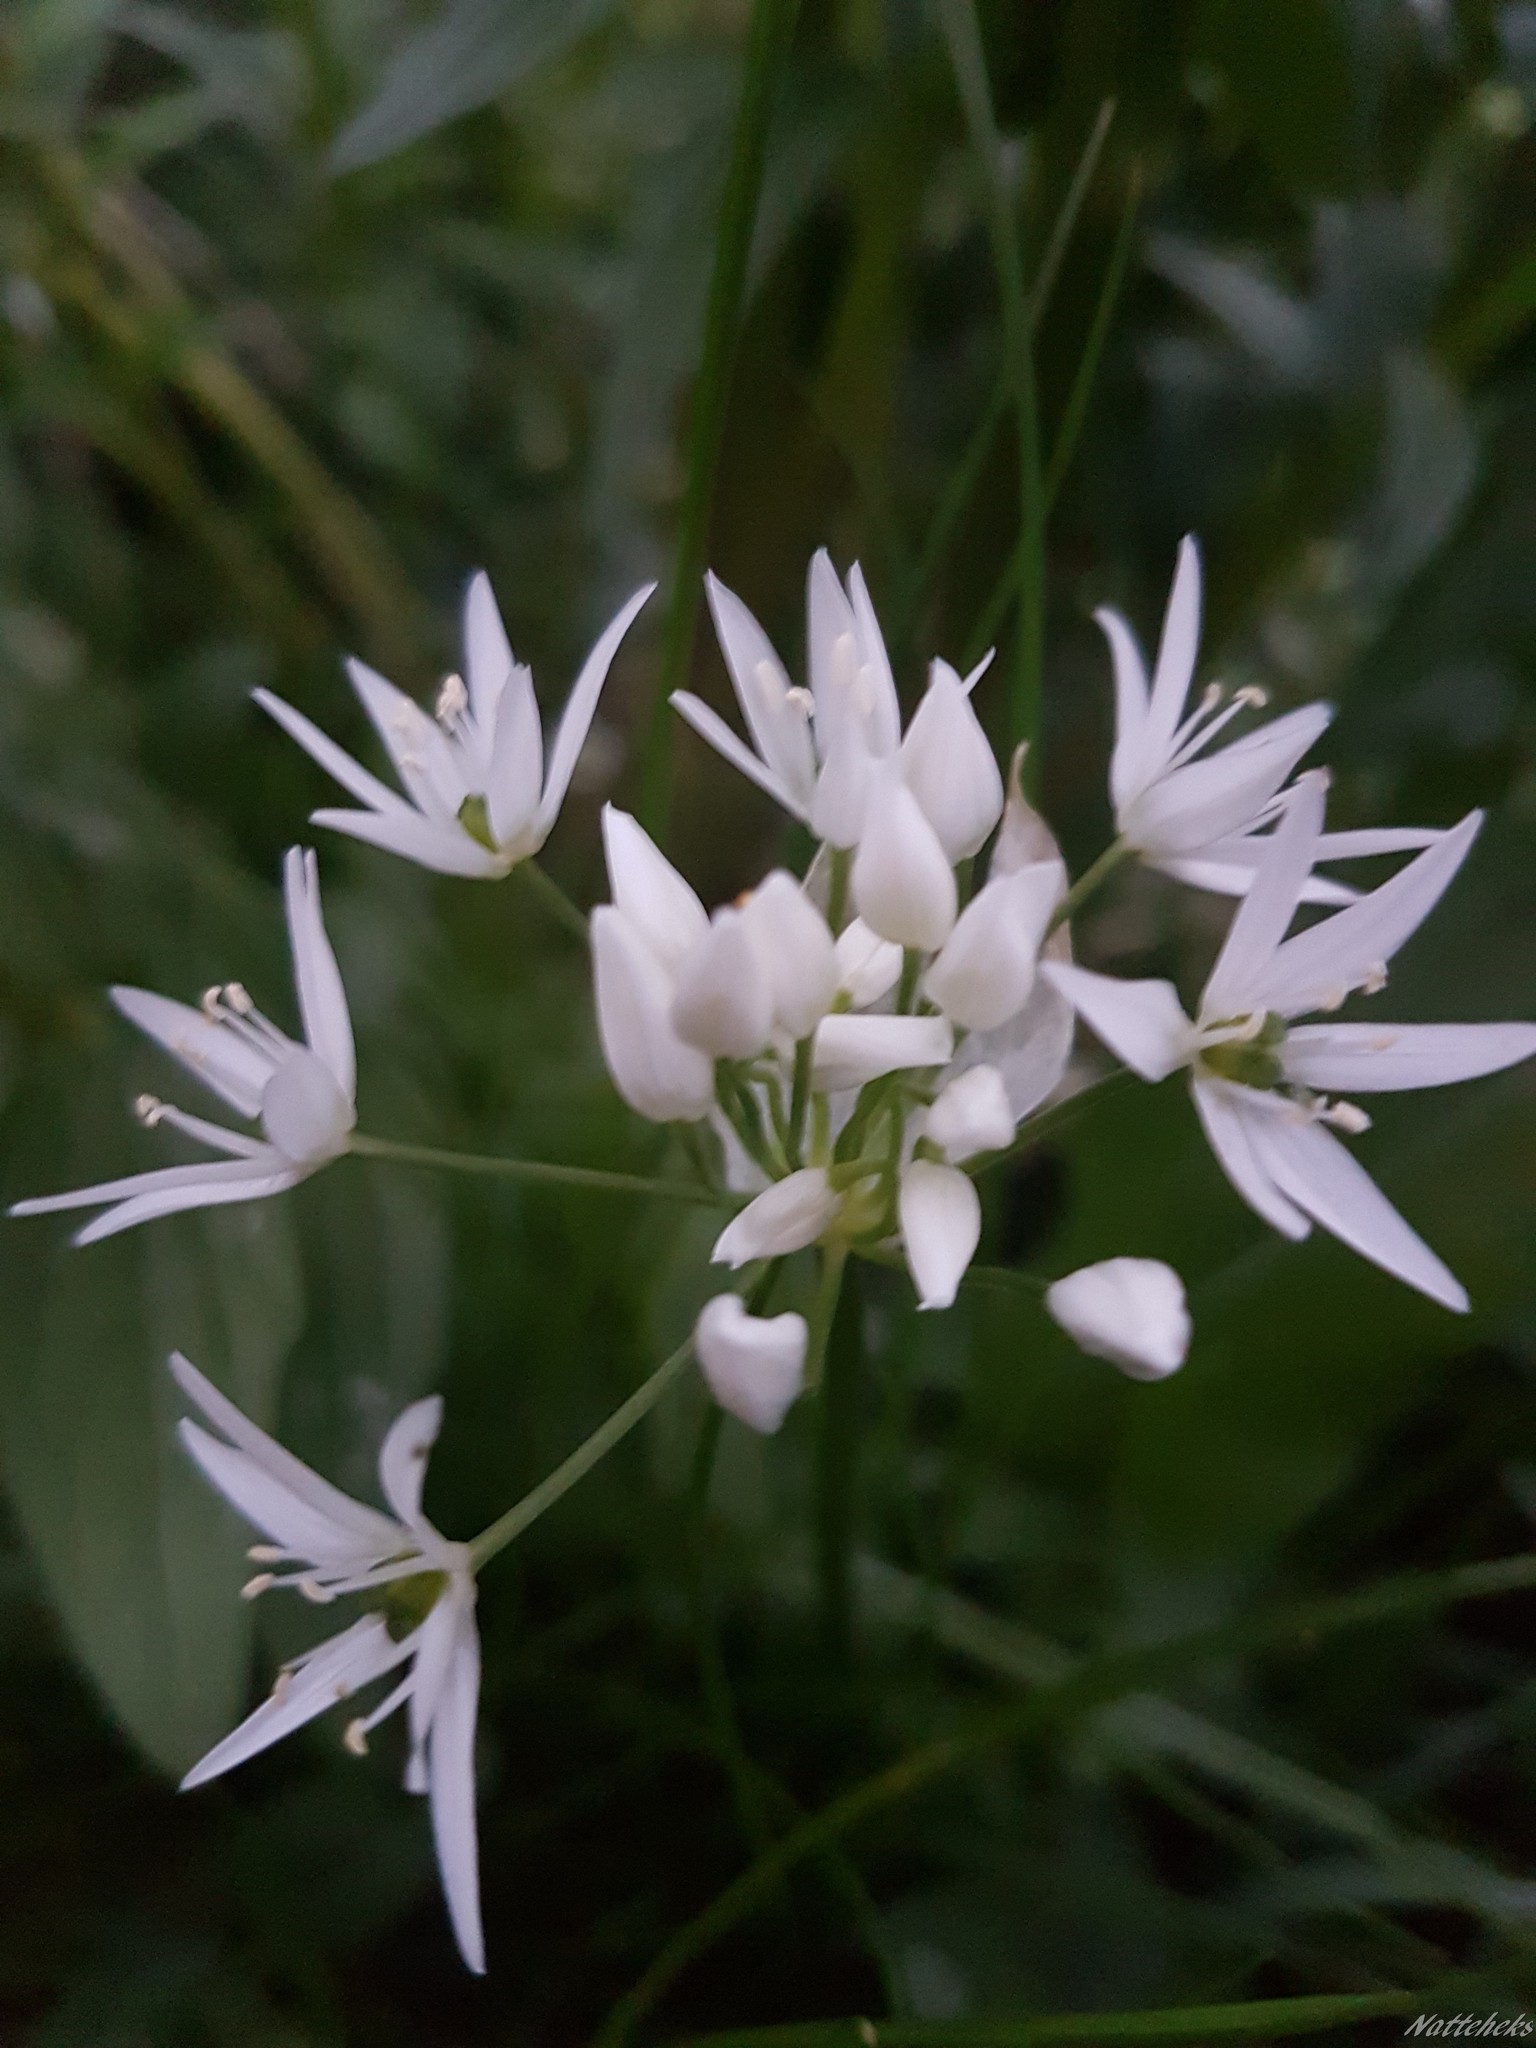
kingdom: Plantae
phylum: Tracheophyta
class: Liliopsida
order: Asparagales
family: Amaryllidaceae
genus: Allium
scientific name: Allium ursinum
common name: Ramsons
